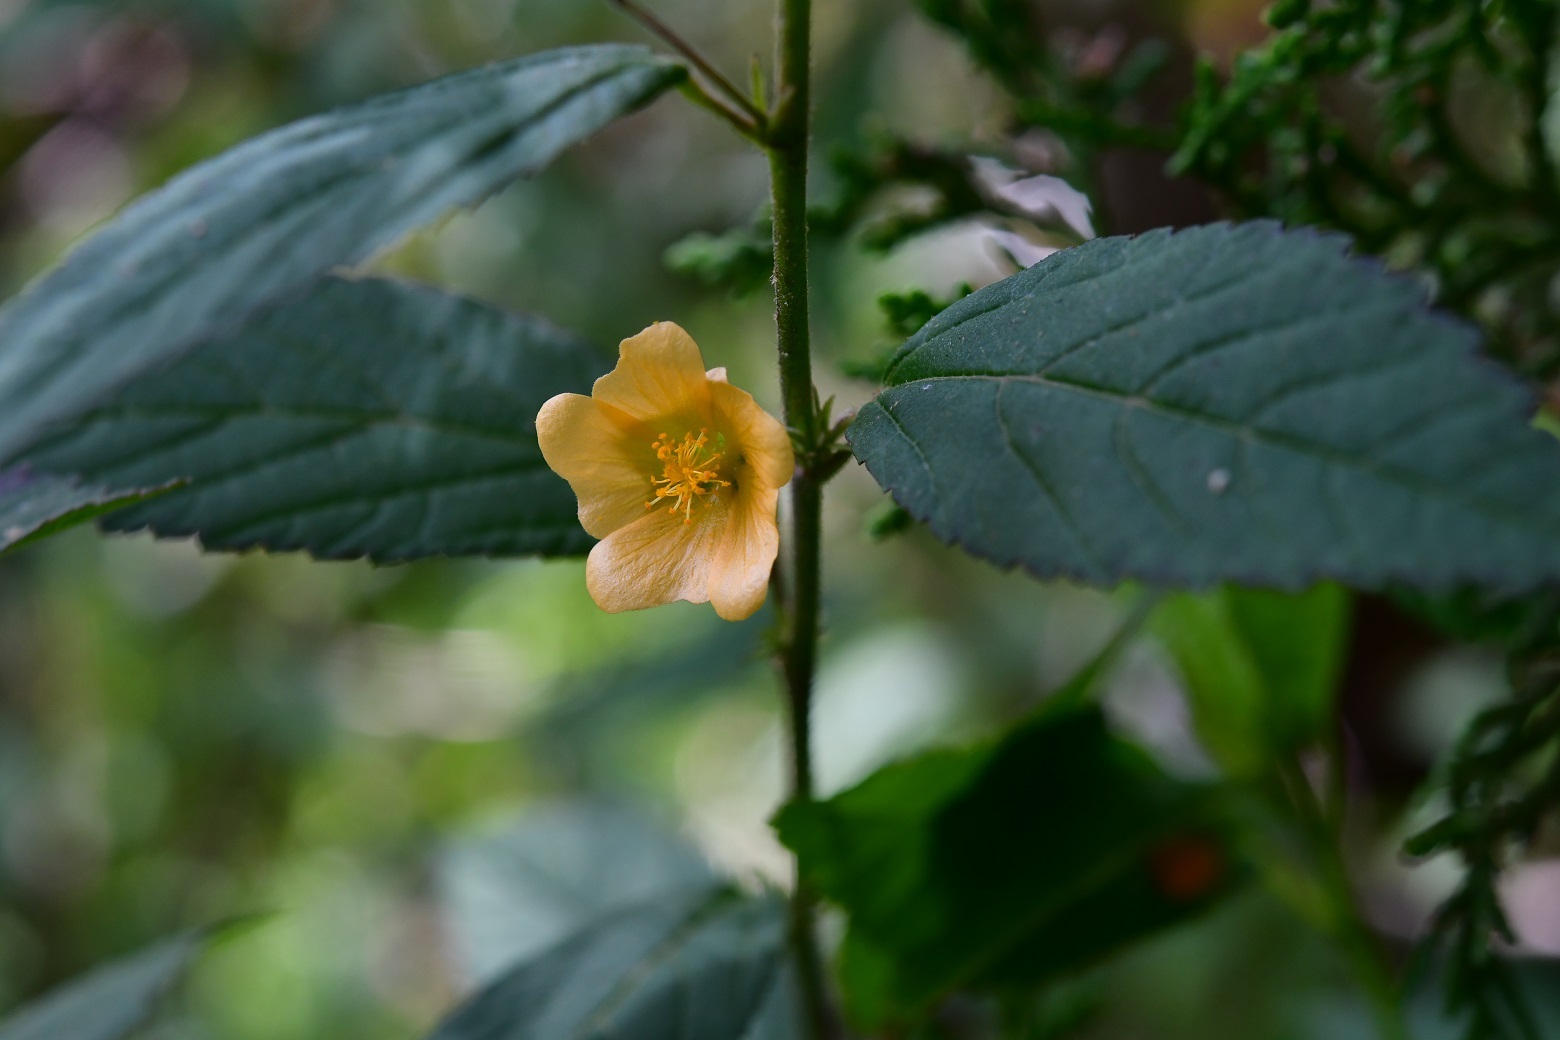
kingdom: Plantae
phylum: Tracheophyta
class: Magnoliopsida
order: Malvales
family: Malvaceae
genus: Sida
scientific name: Sida acuta
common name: Common wireweed
